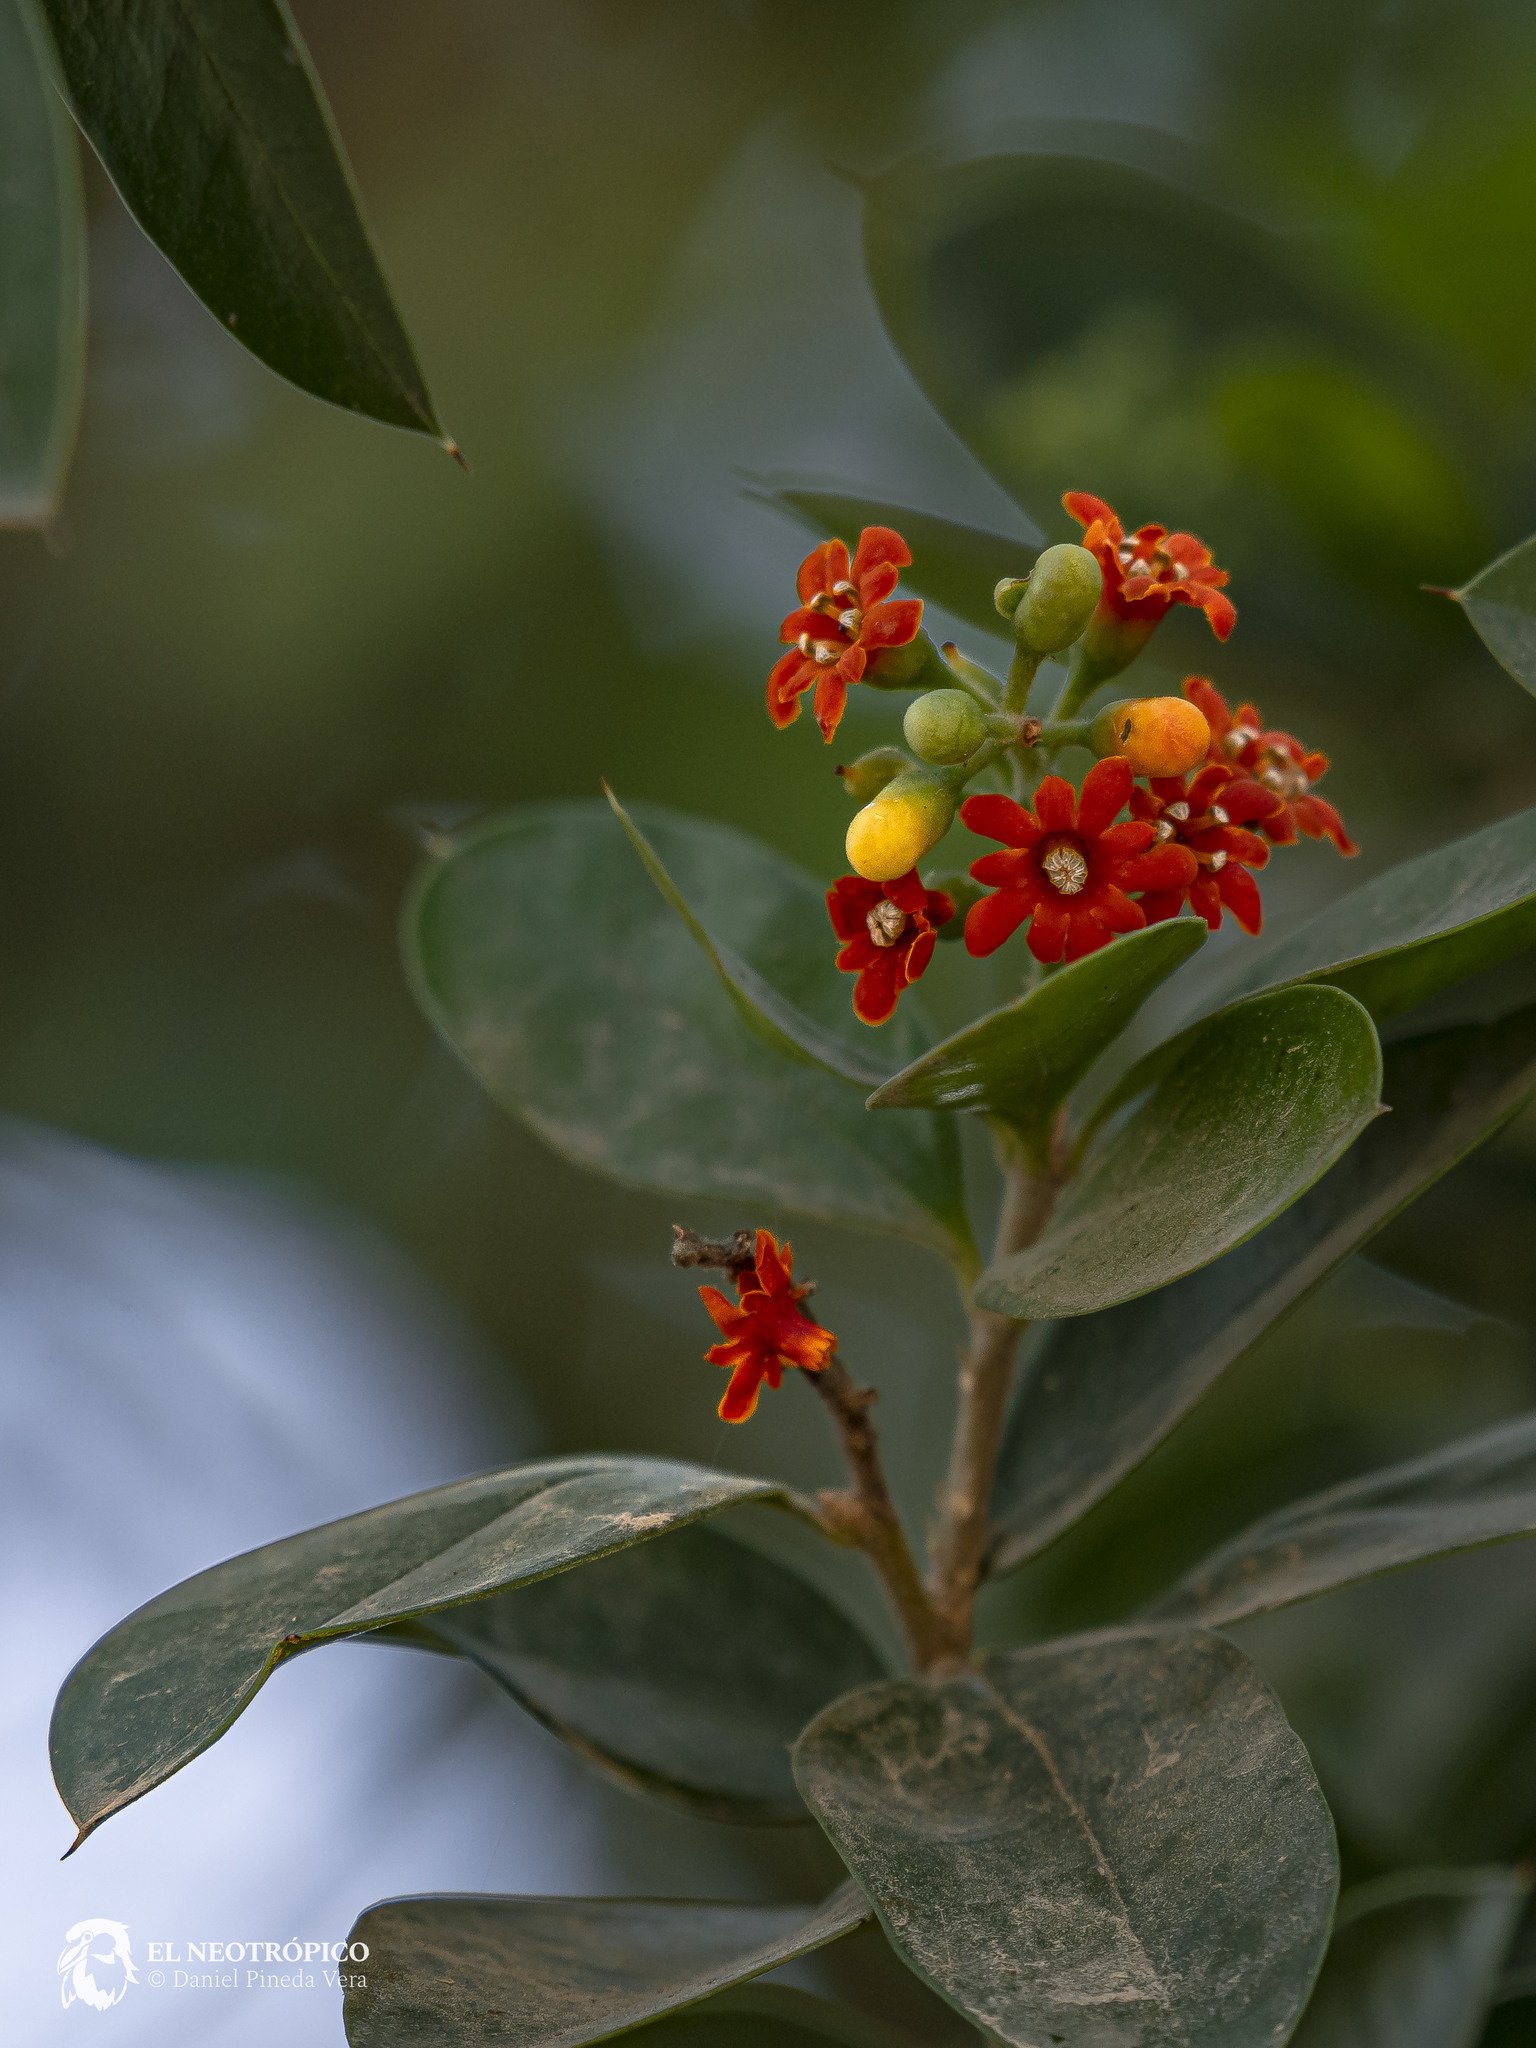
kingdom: Plantae
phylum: Tracheophyta
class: Magnoliopsida
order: Ericales
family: Primulaceae
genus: Bonellia
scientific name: Bonellia macrocarpa
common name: Primrose
